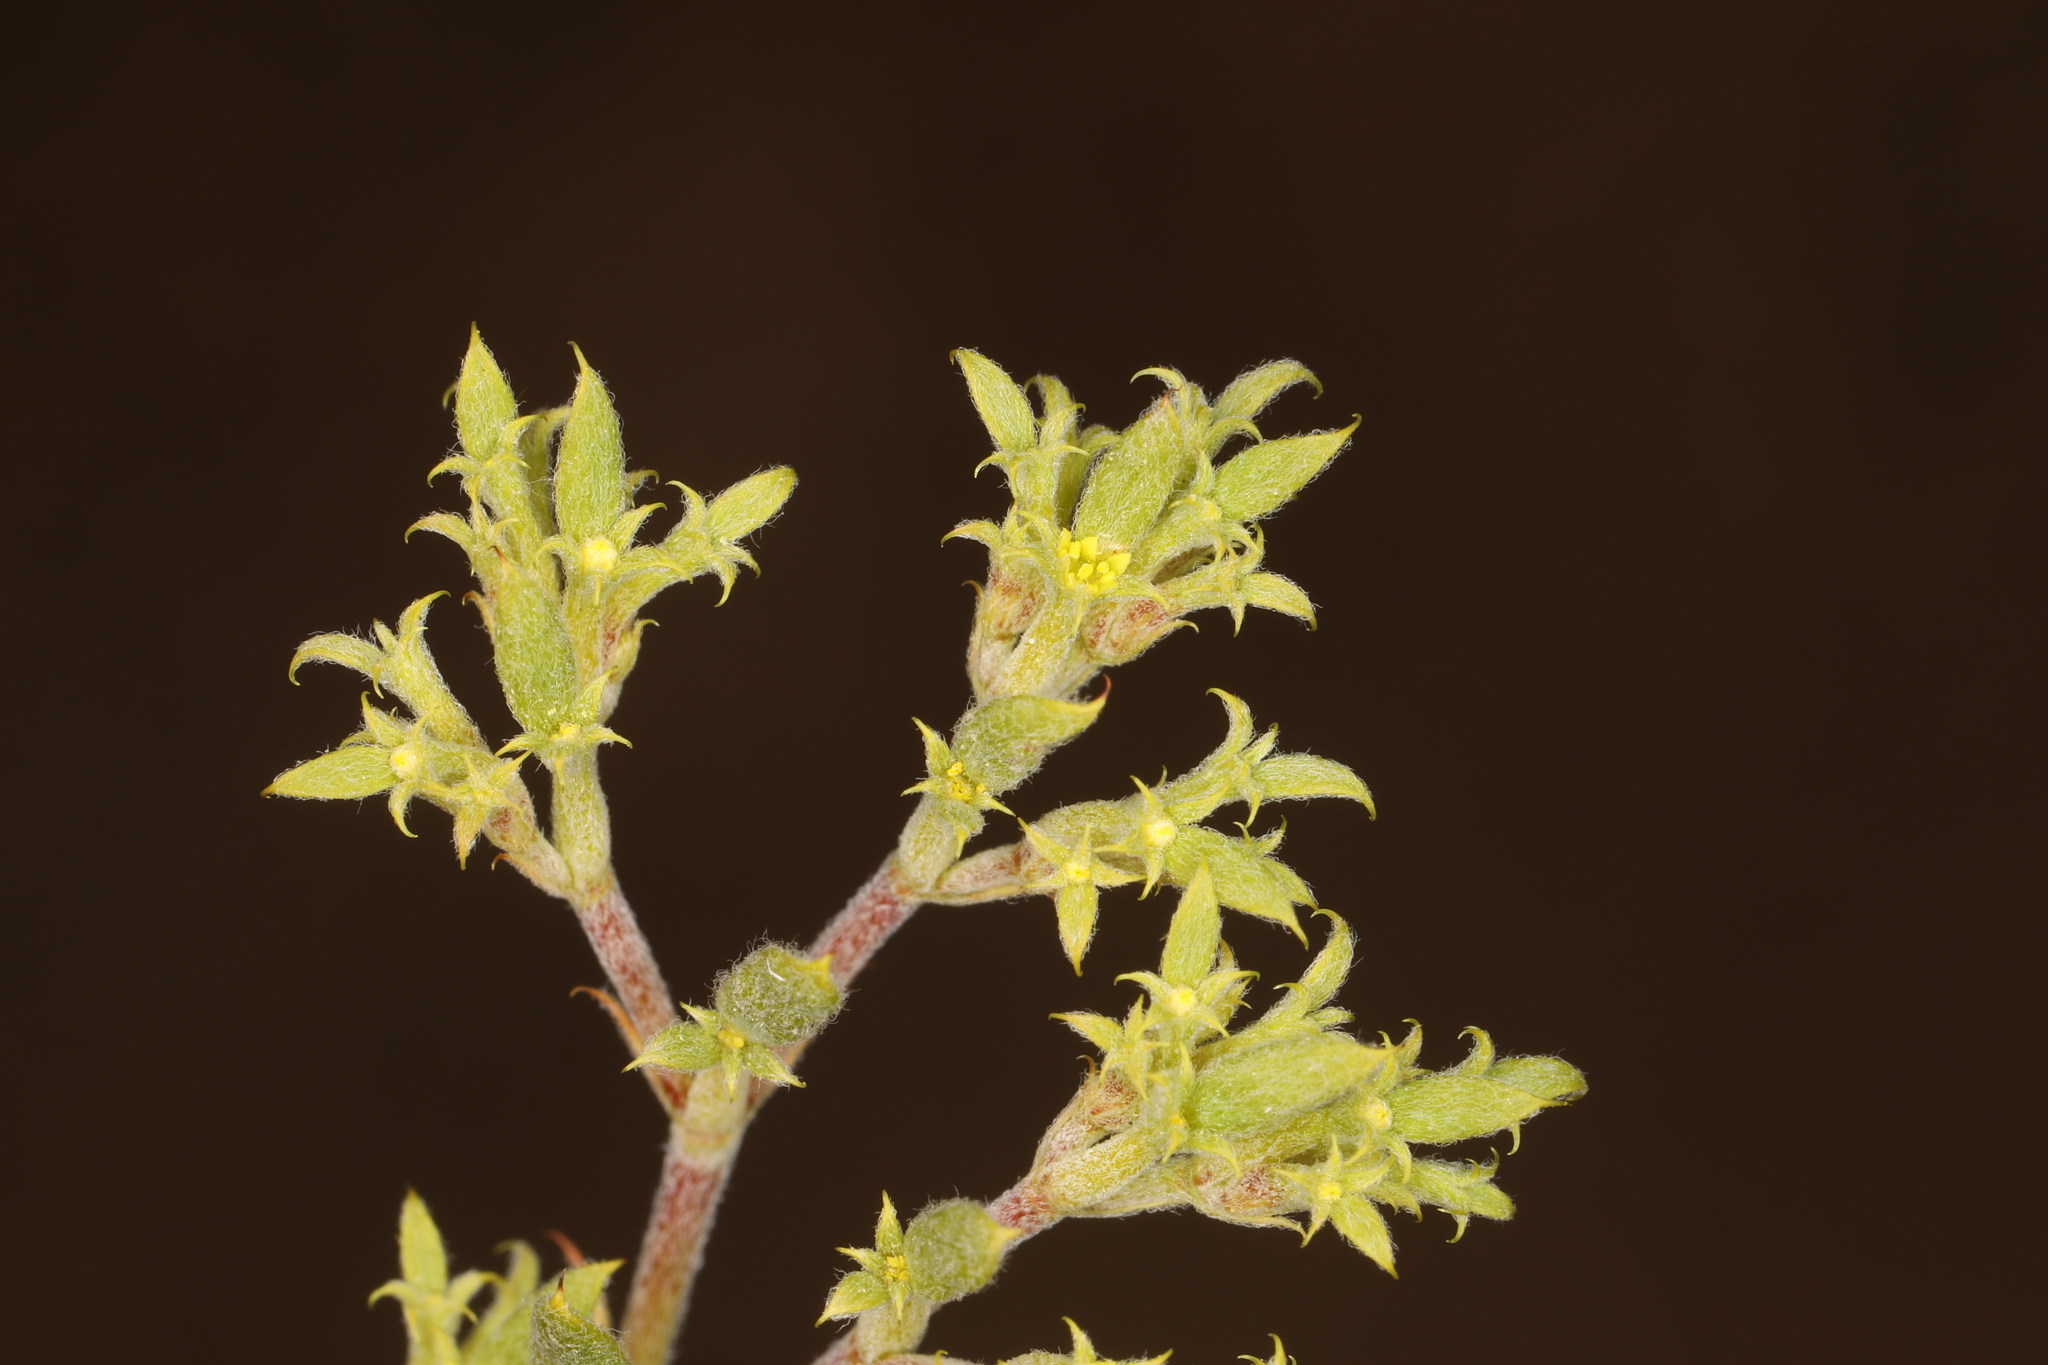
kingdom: Plantae
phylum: Tracheophyta
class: Magnoliopsida
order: Caryophyllales
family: Polygonaceae
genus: Chorizanthe
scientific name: Chorizanthe watsonii
